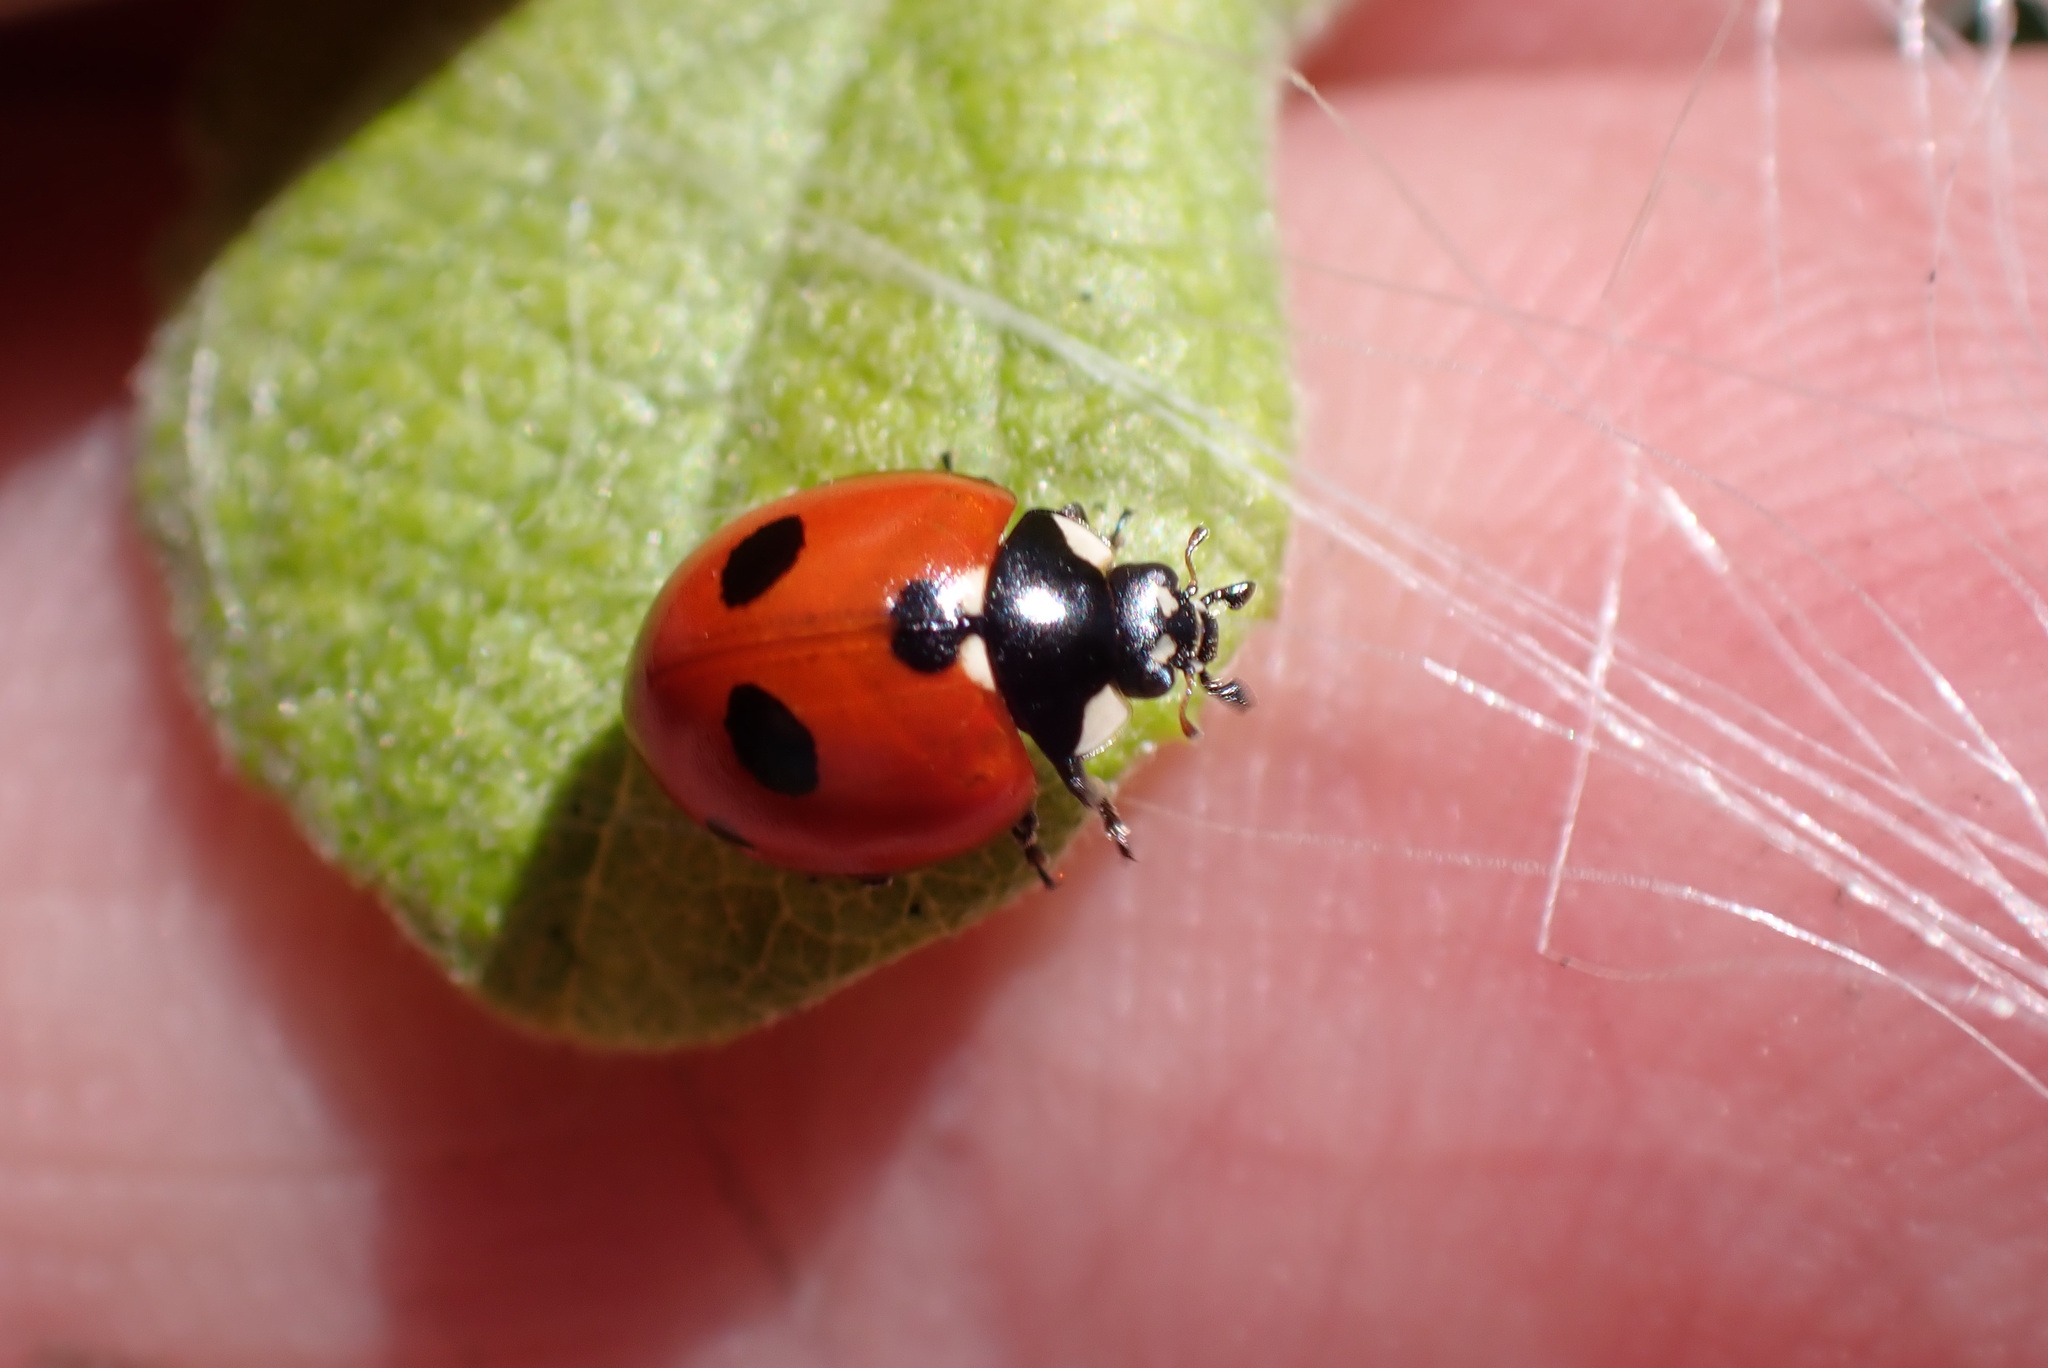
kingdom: Animalia
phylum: Arthropoda
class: Insecta
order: Coleoptera
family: Coccinellidae
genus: Coccinella
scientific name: Coccinella quinquepunctata
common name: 5-spot ladybird
